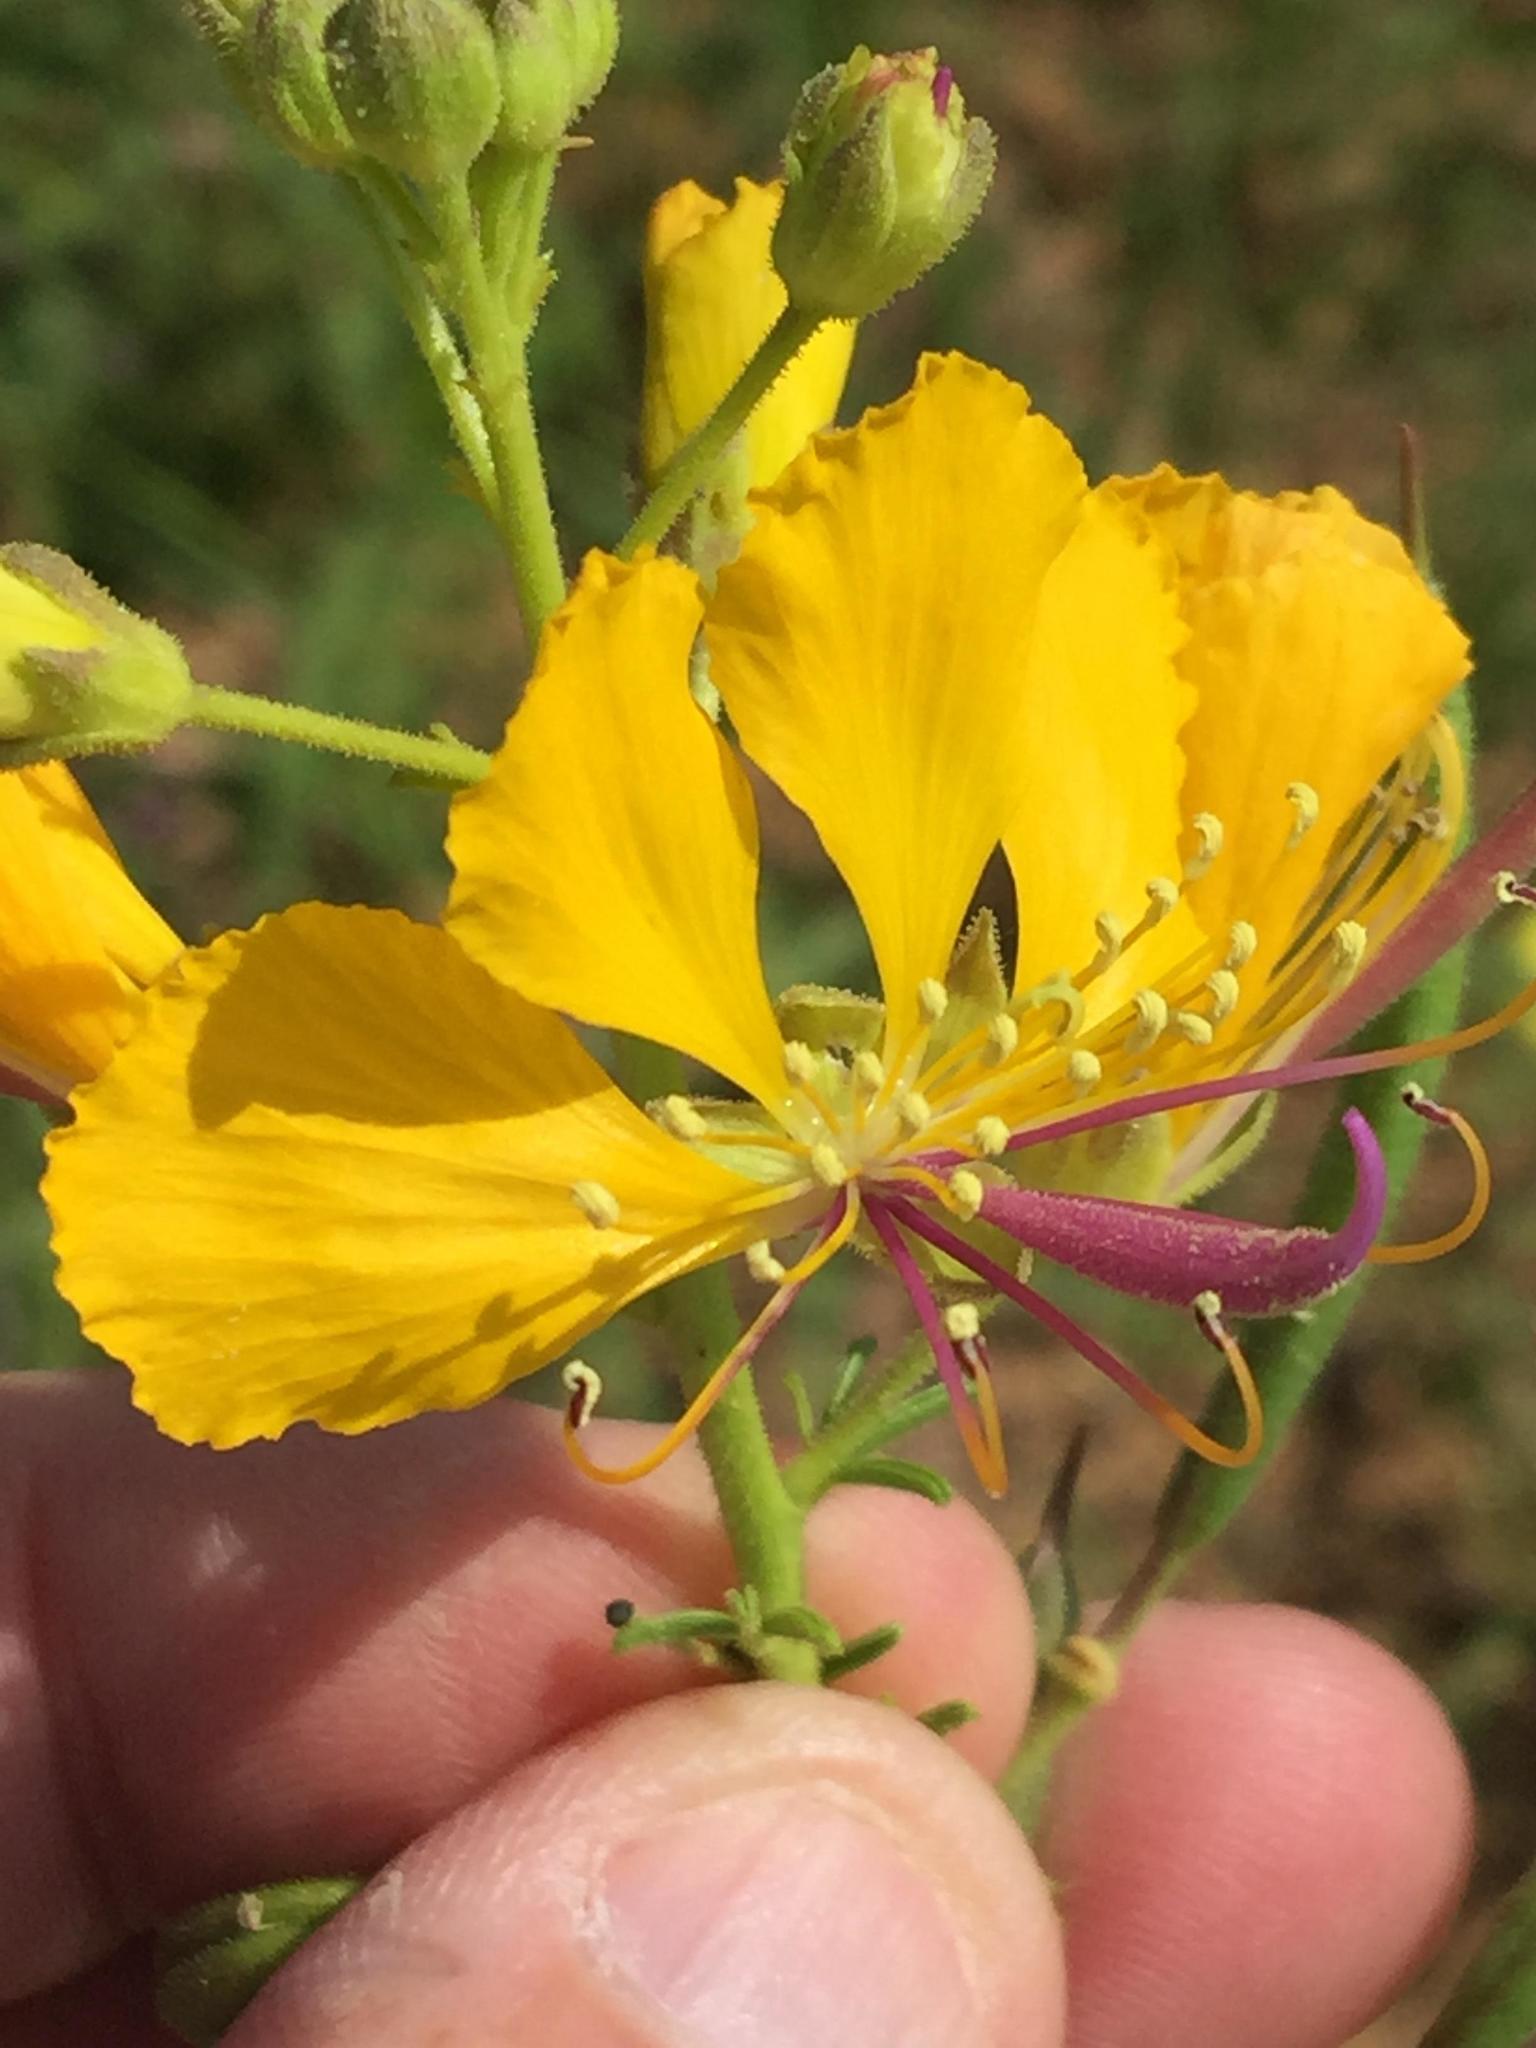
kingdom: Plantae
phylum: Tracheophyta
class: Magnoliopsida
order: Brassicales
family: Cleomaceae
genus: Kersia
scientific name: Kersia suffruticosa
